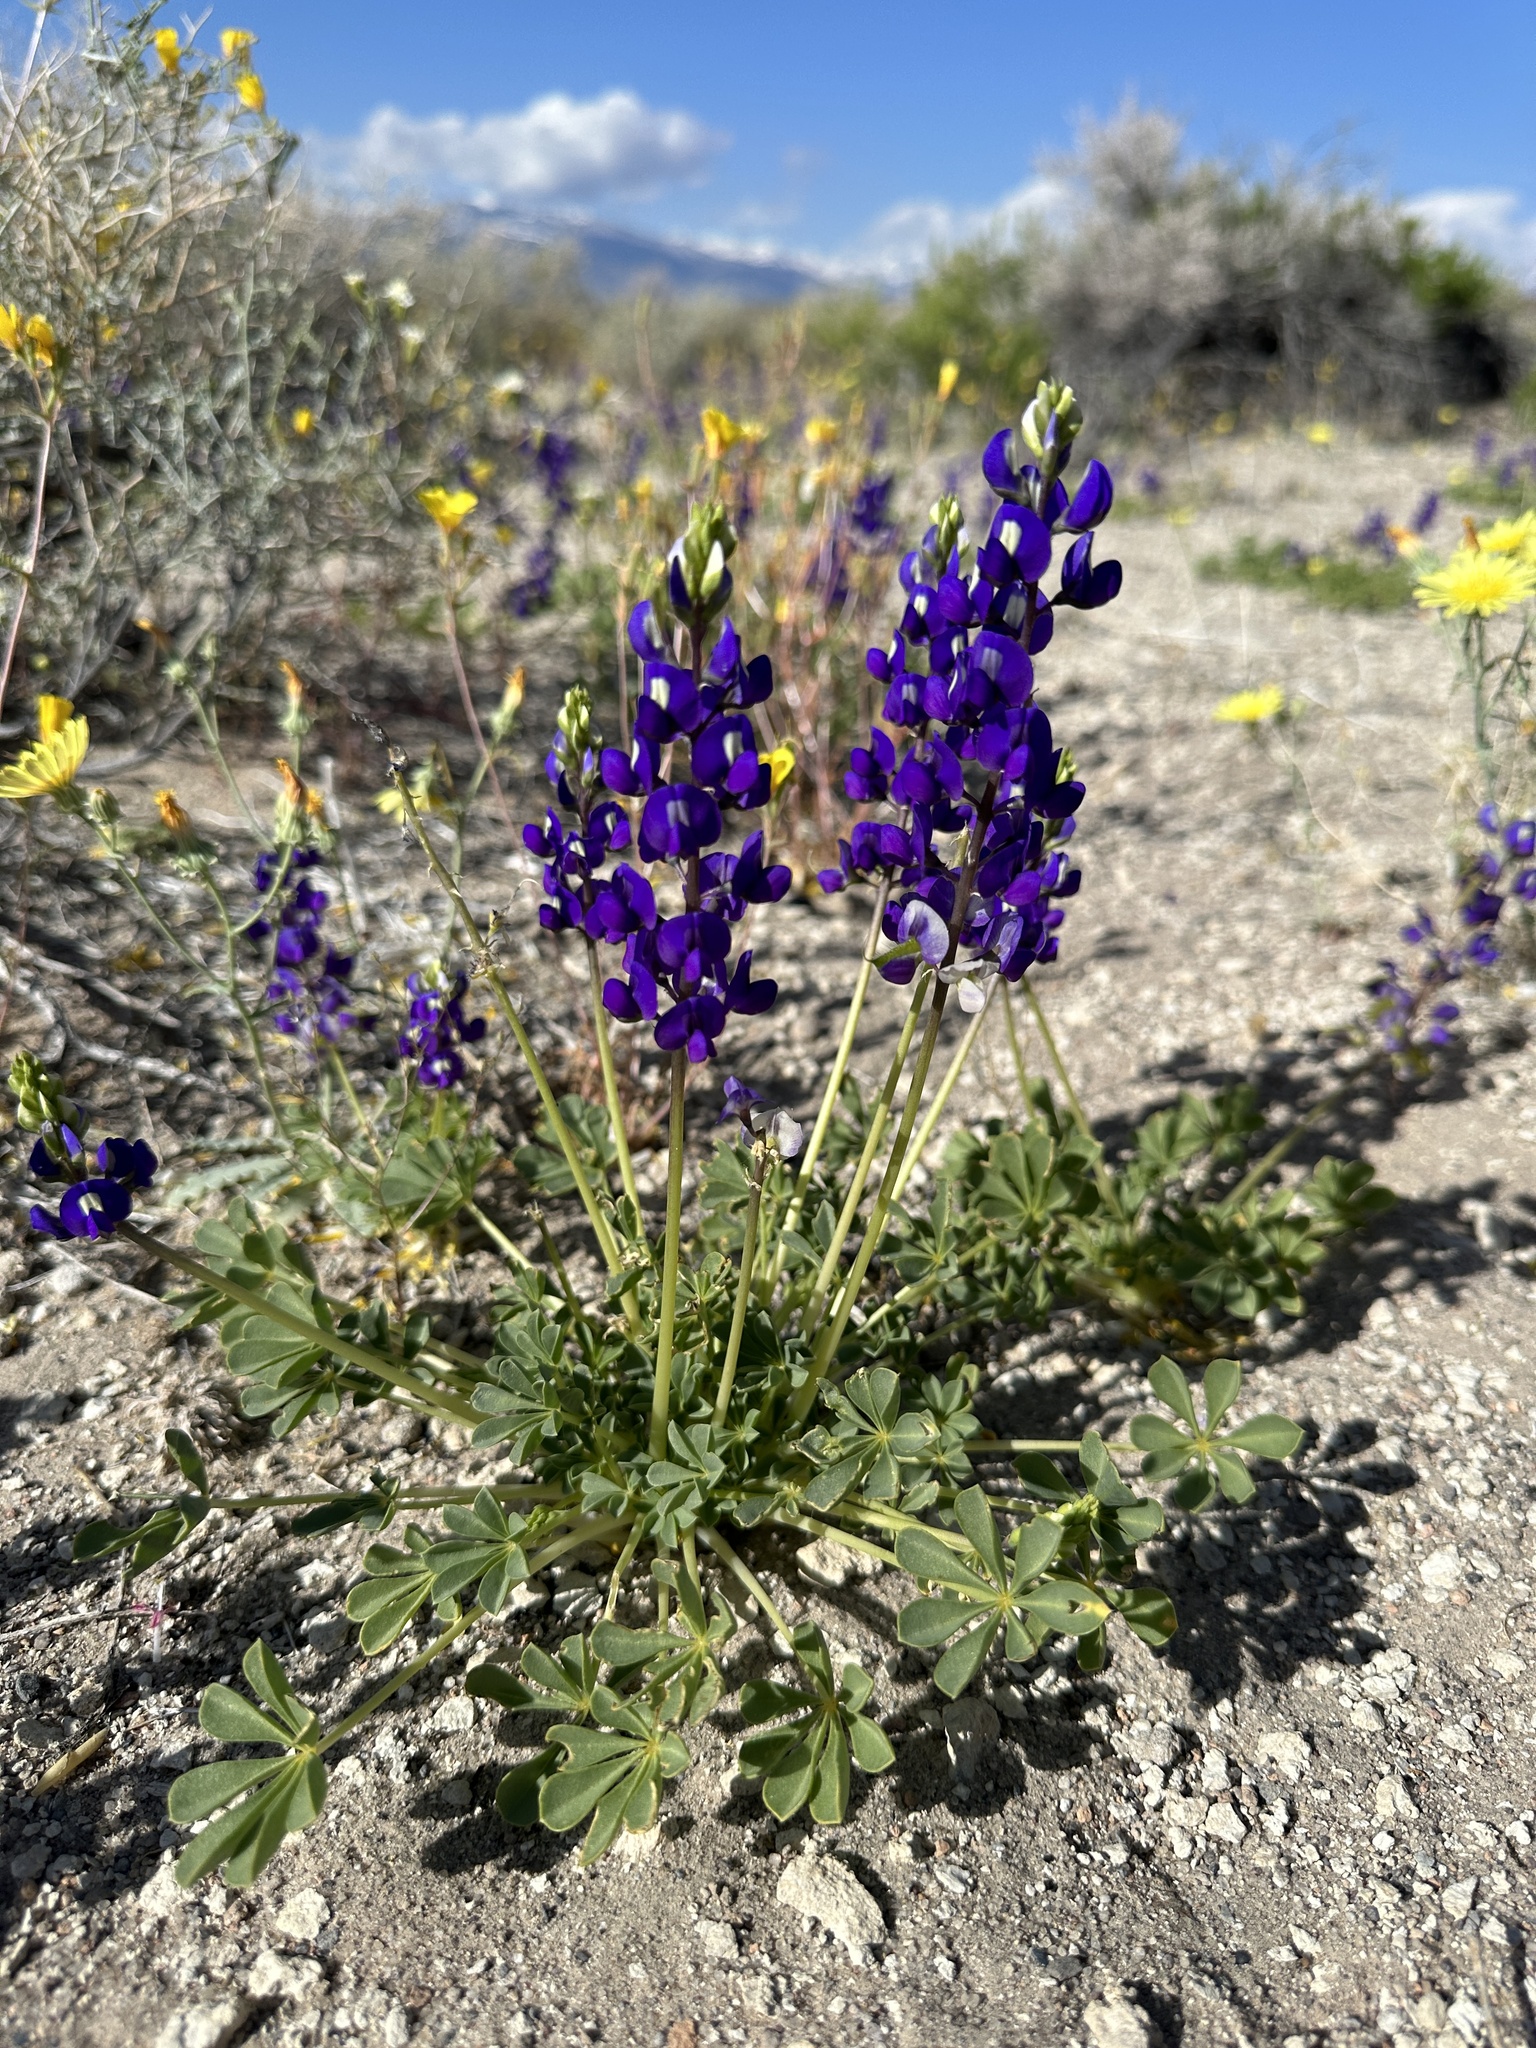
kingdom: Plantae
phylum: Tracheophyta
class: Magnoliopsida
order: Fabales
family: Fabaceae
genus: Lupinus
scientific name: Lupinus
